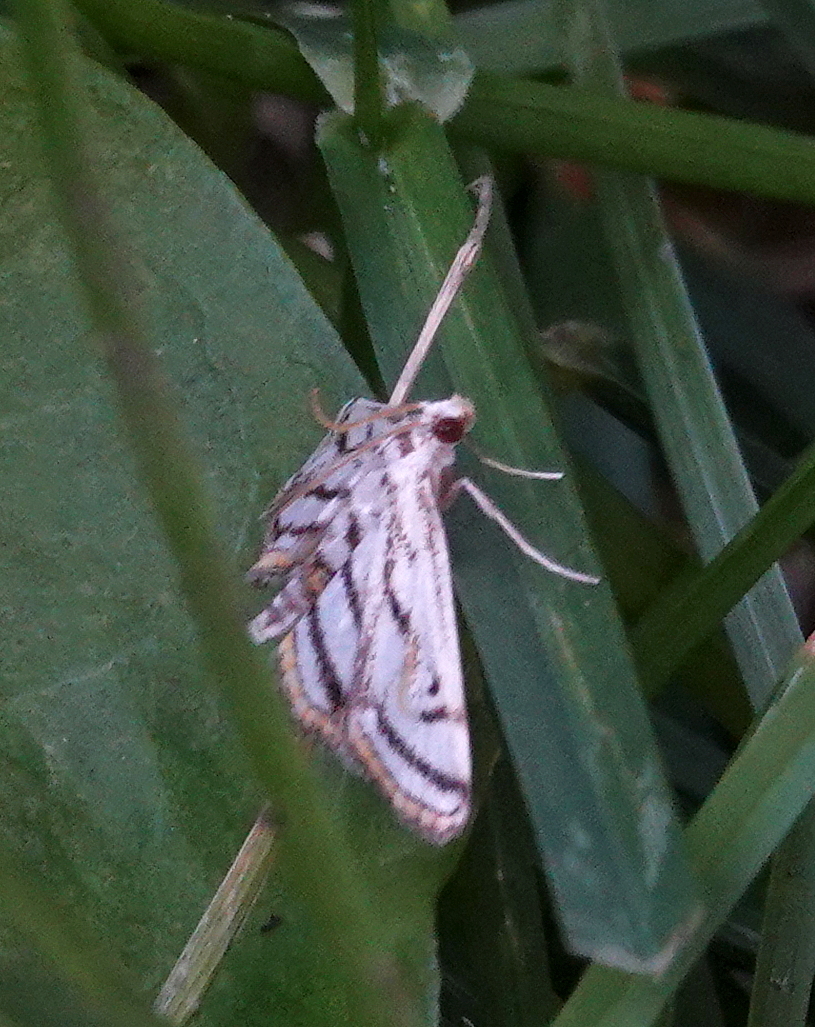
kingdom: Animalia
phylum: Arthropoda
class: Insecta
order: Lepidoptera
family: Crambidae
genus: Parapoynx
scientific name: Parapoynx badiusalis
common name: Chestnut-marked pondweed moth
